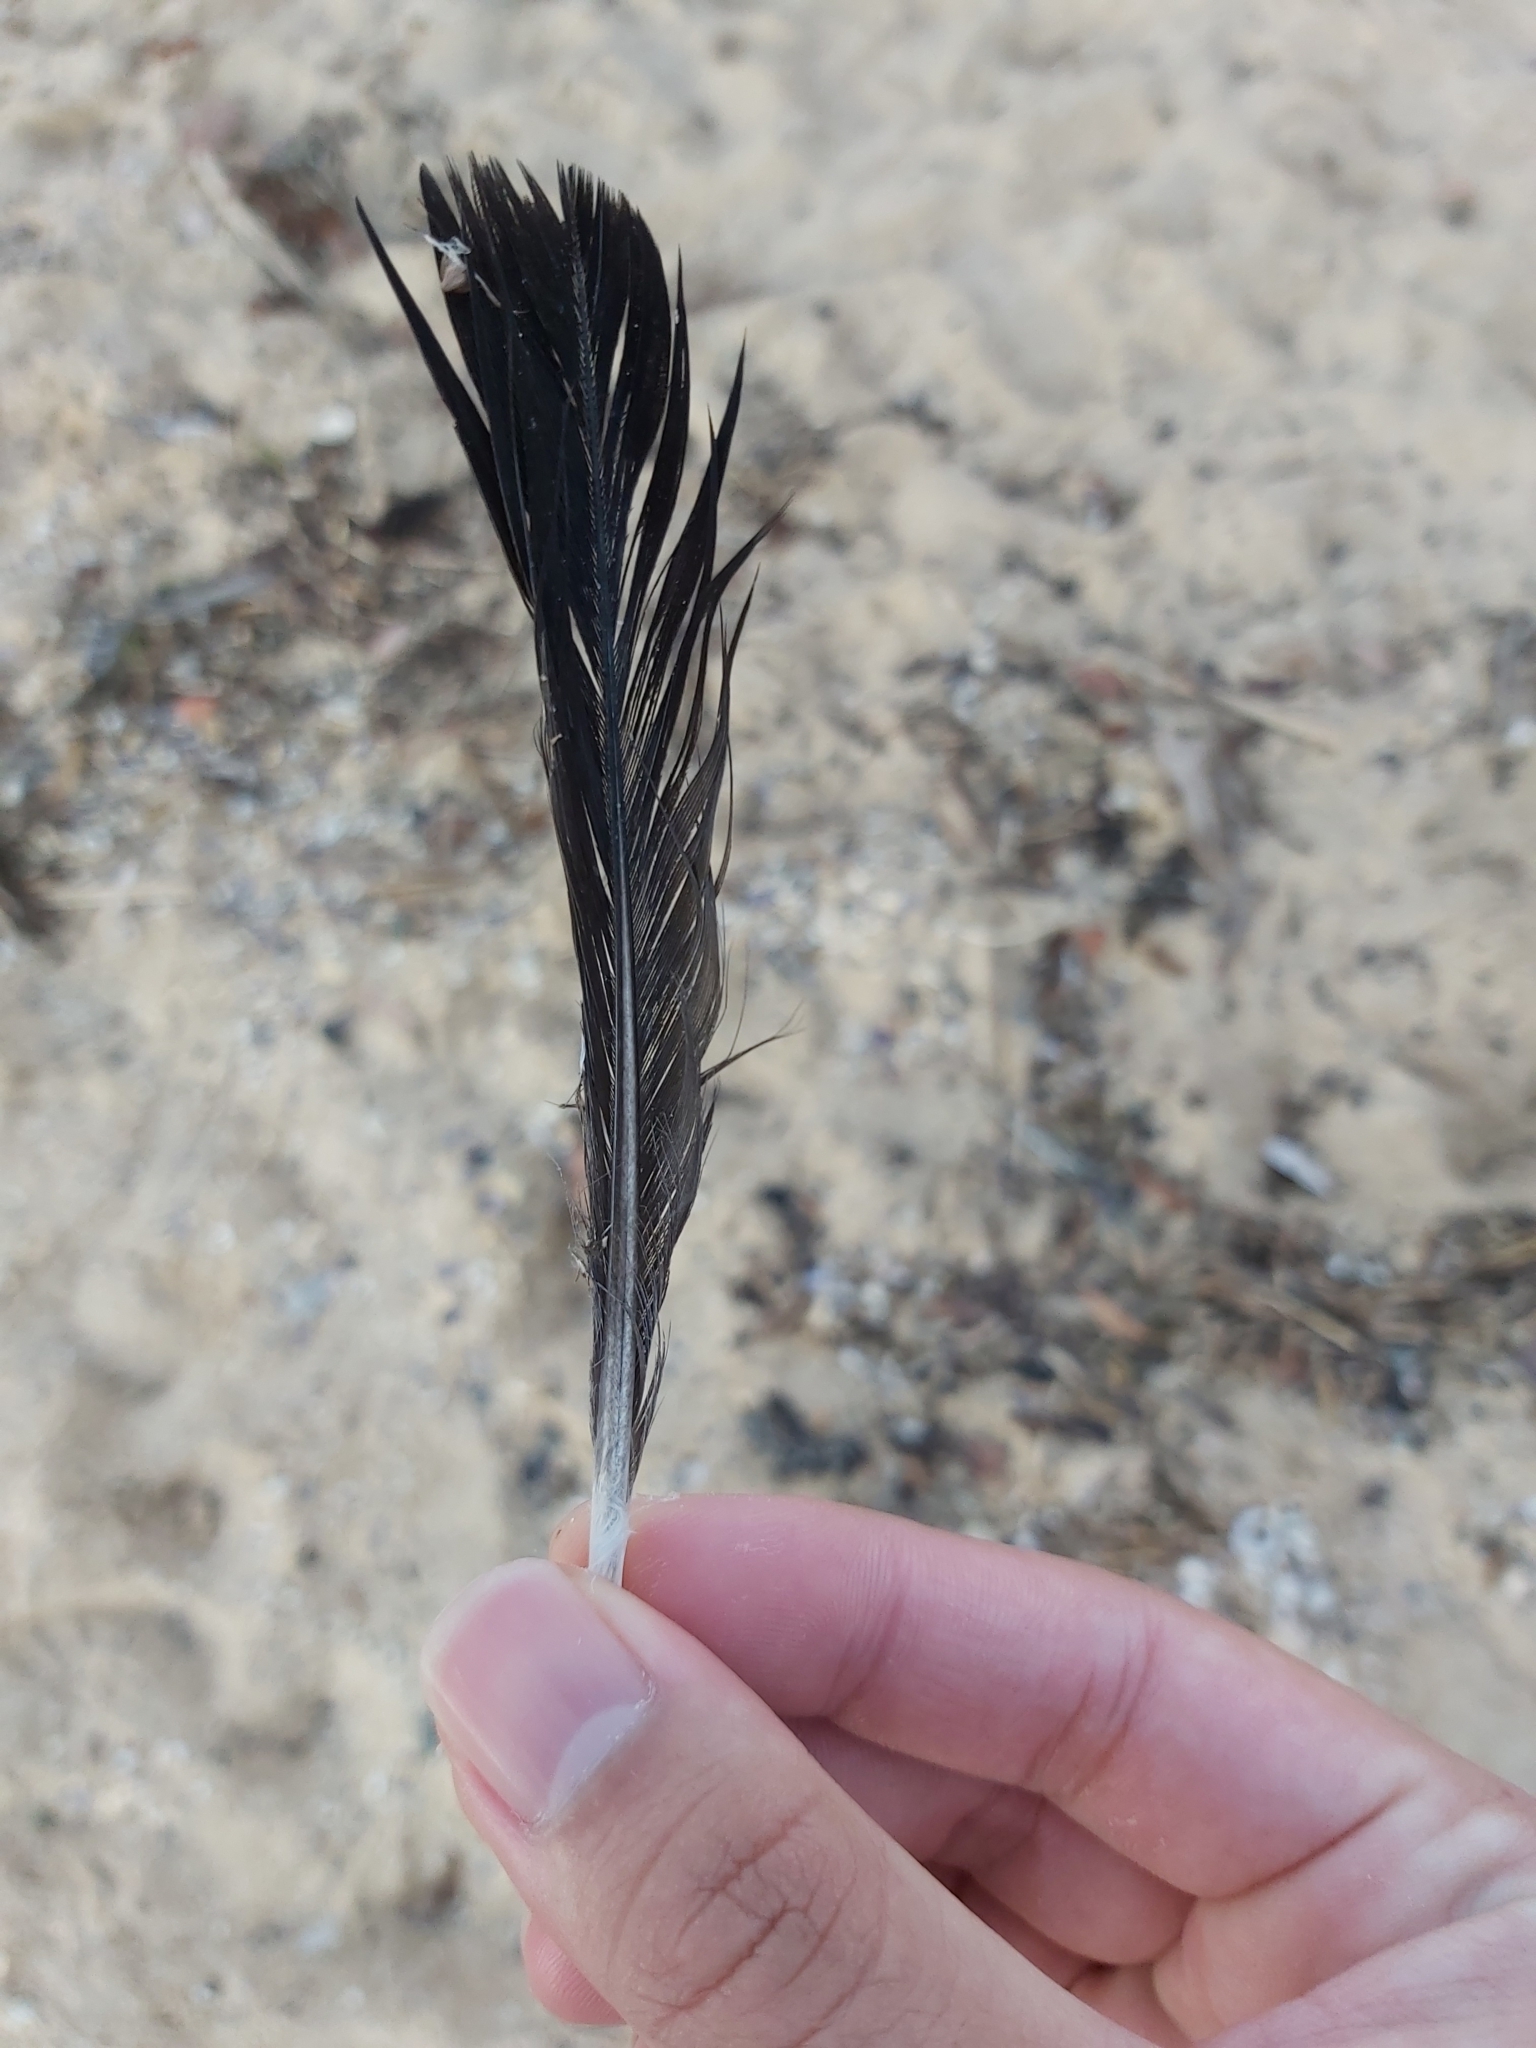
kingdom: Animalia
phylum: Chordata
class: Aves
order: Columbiformes
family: Columbidae
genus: Columba
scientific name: Columba livia
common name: Rock pigeon
